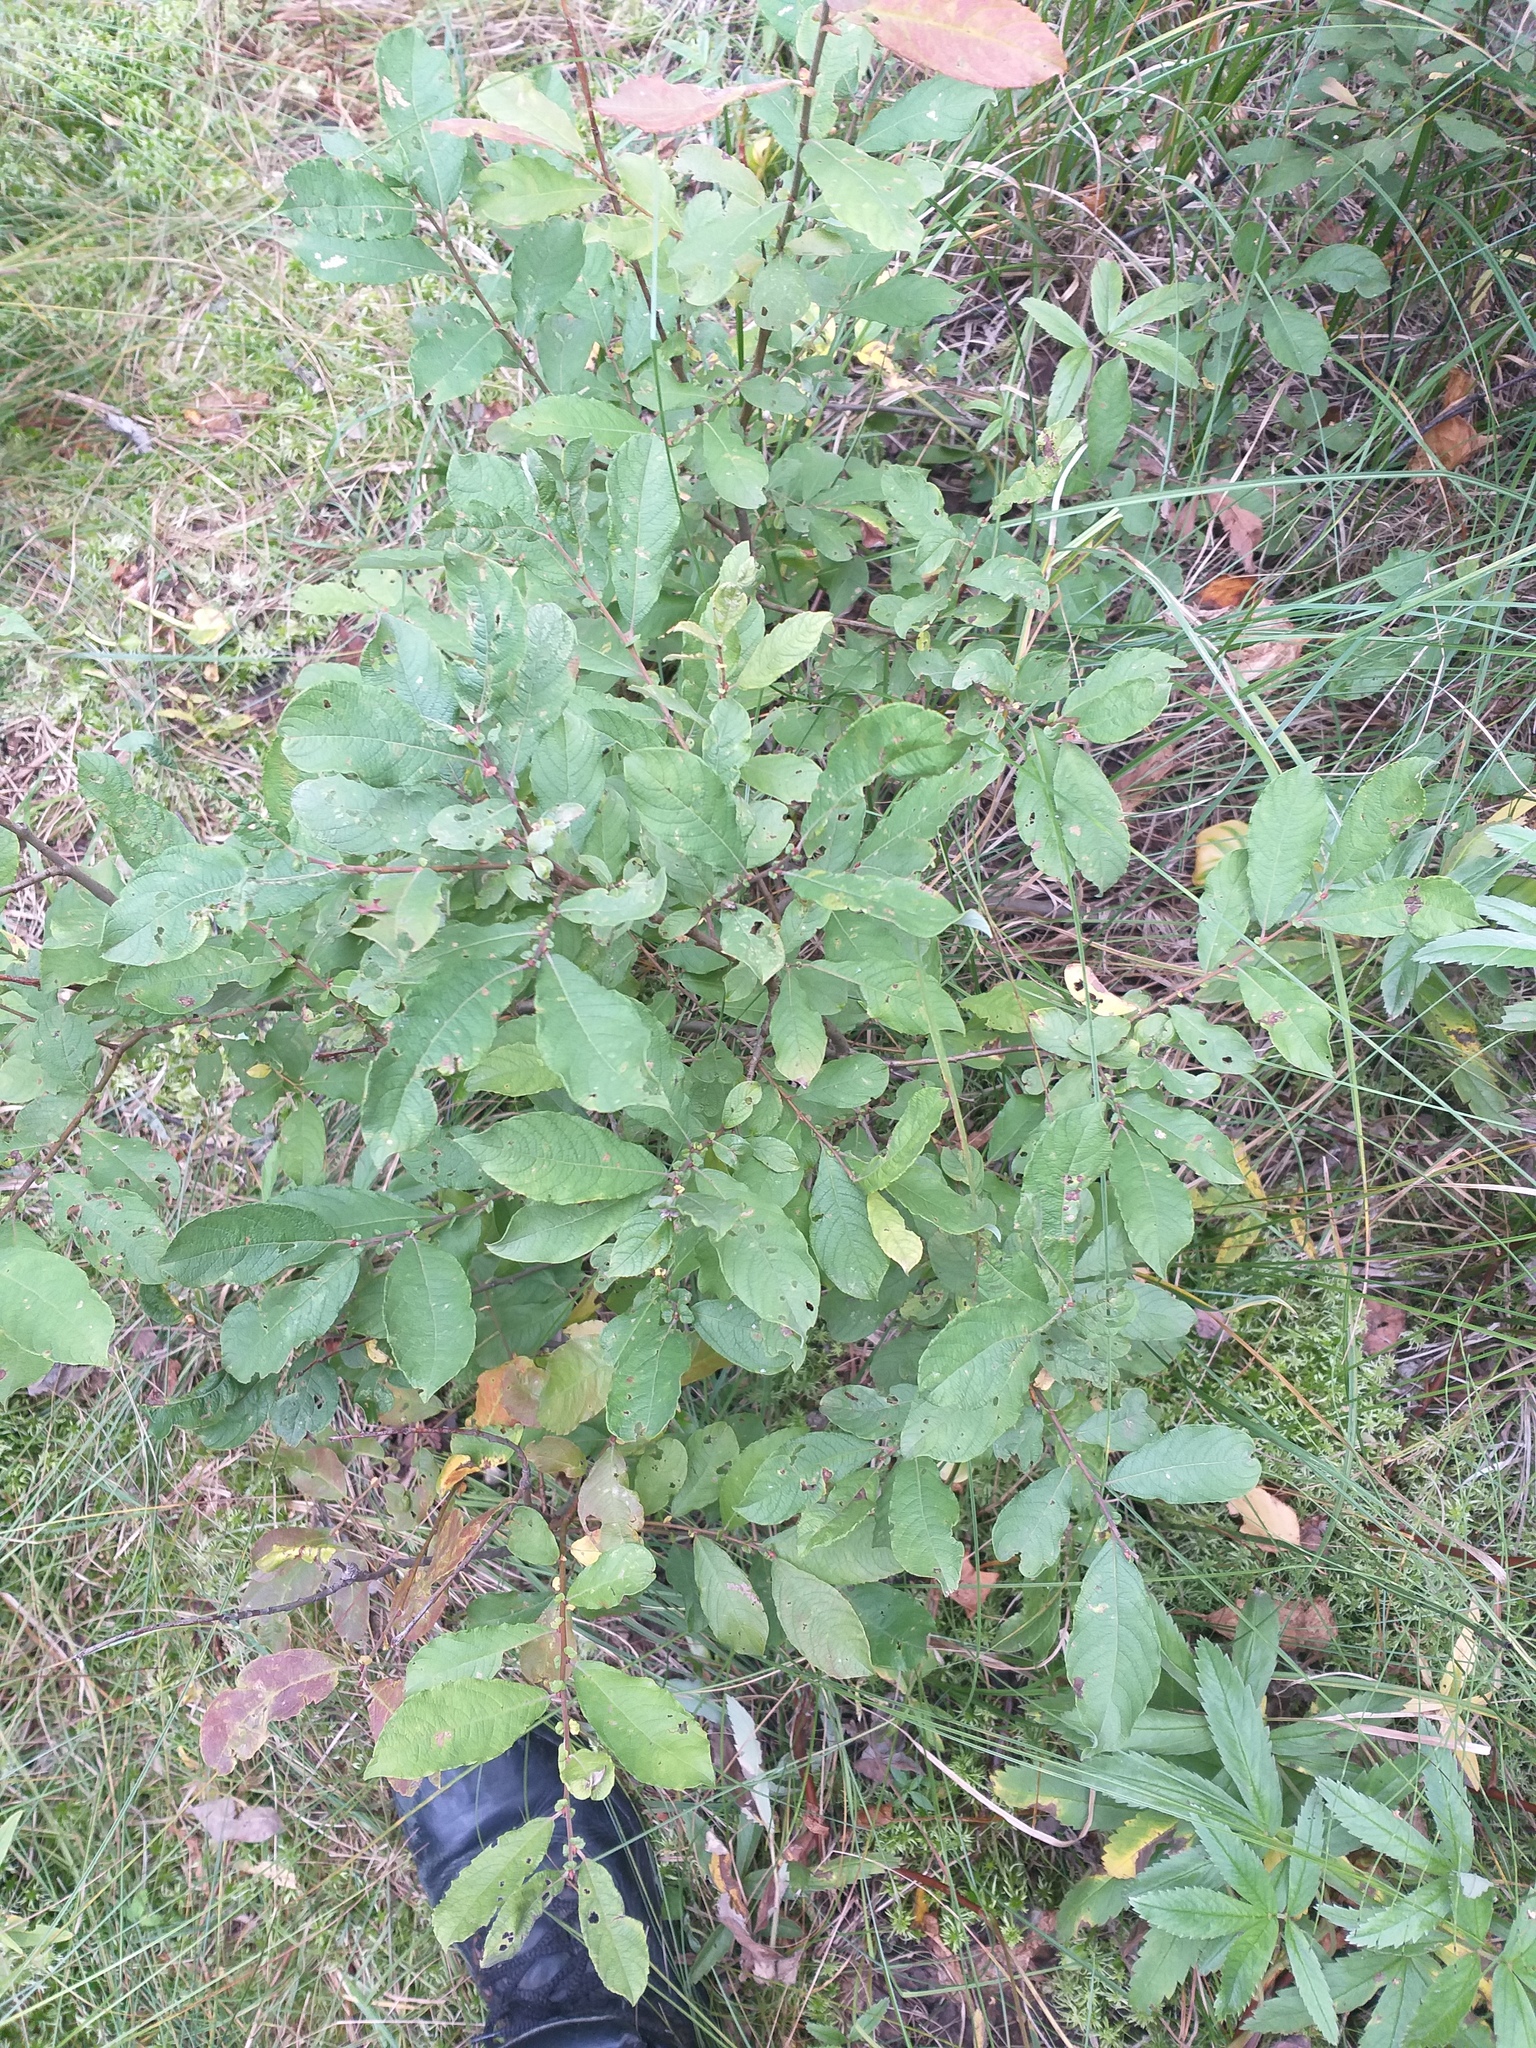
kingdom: Plantae
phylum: Tracheophyta
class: Magnoliopsida
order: Malpighiales
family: Salicaceae
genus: Salix
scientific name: Salix aurita
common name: Eared willow
